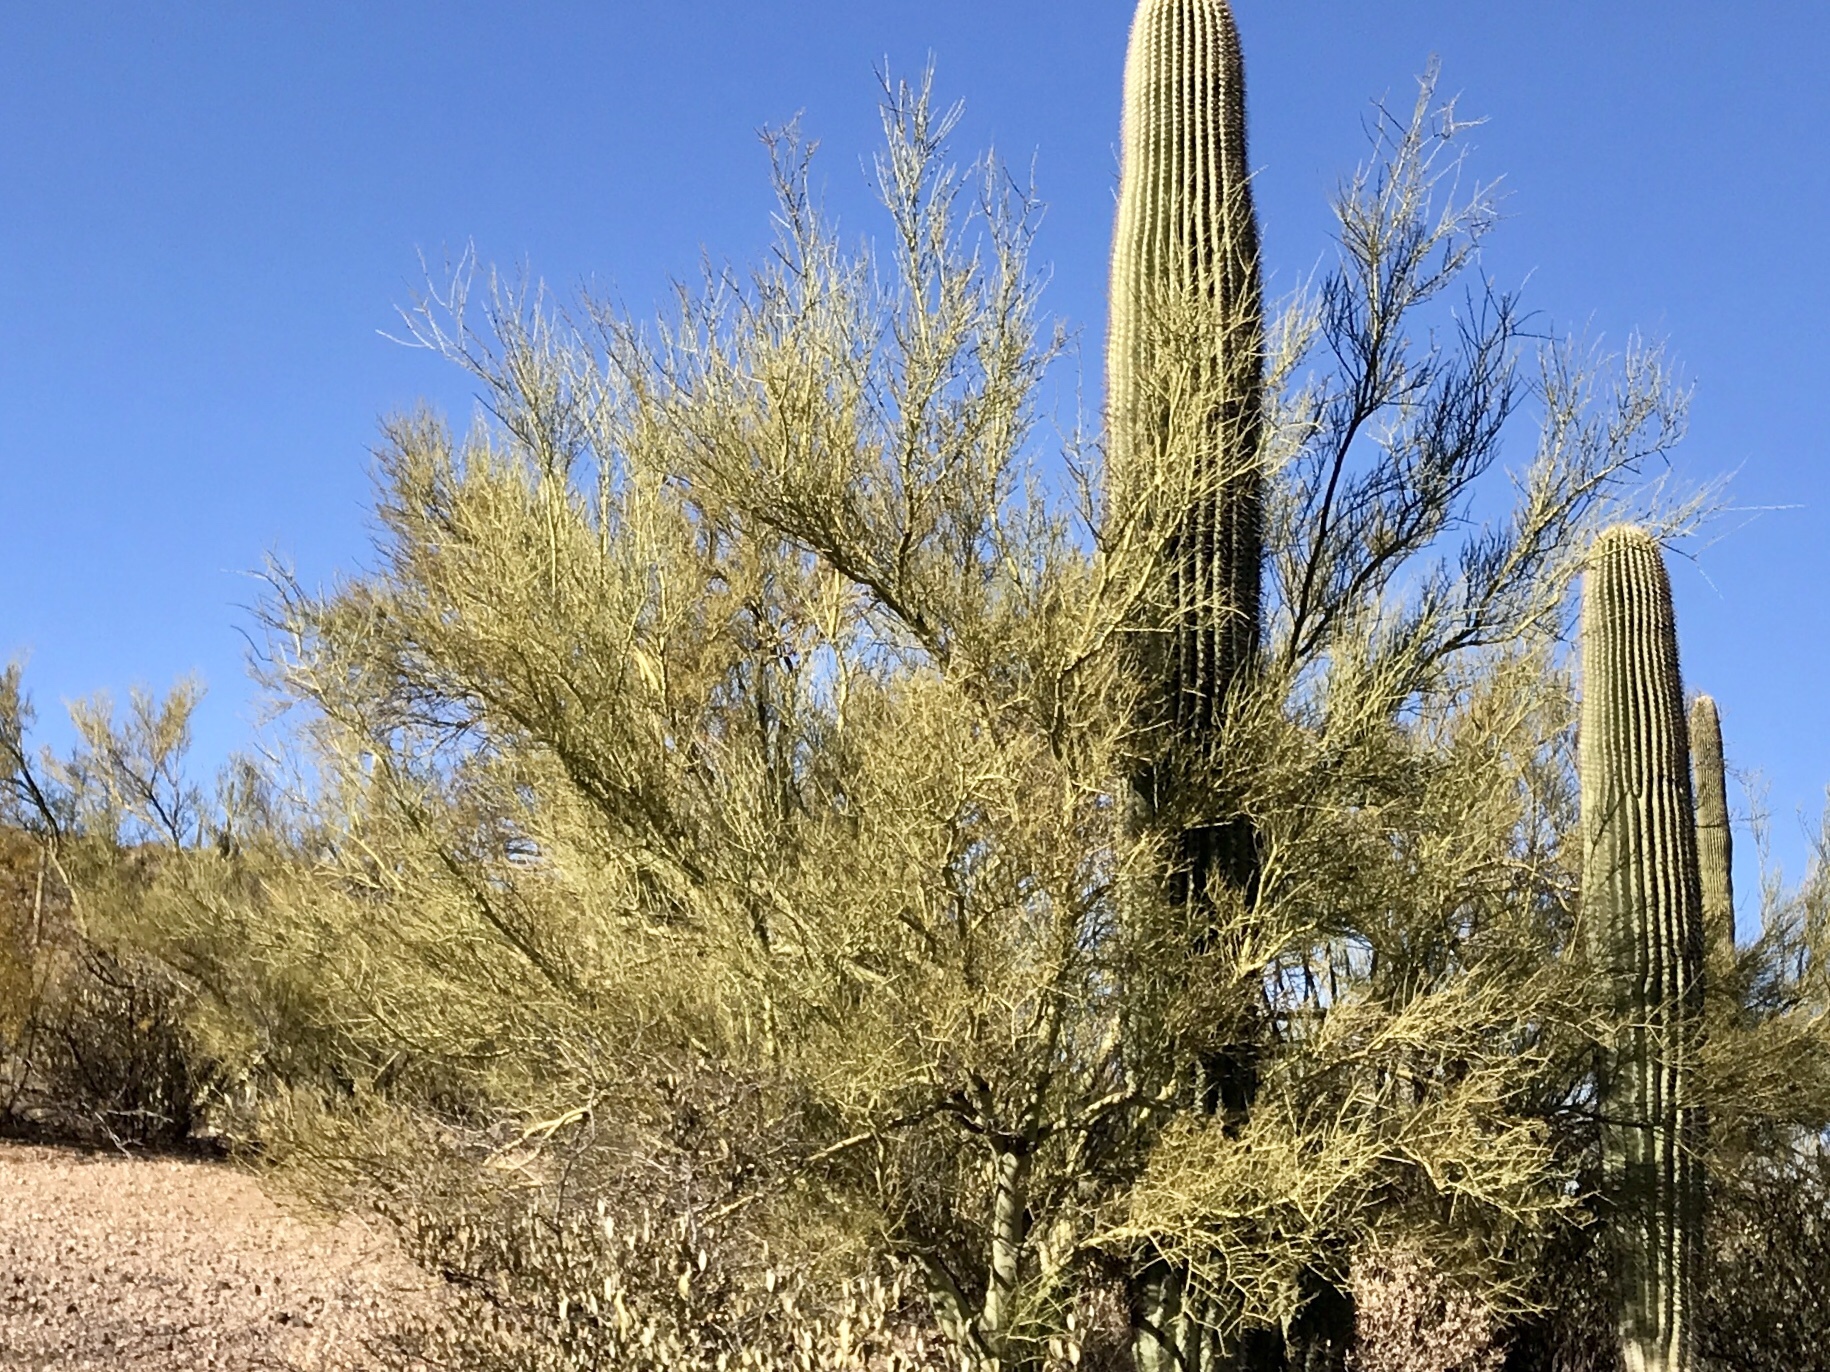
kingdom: Plantae
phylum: Tracheophyta
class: Magnoliopsida
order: Fabales
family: Fabaceae
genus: Parkinsonia
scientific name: Parkinsonia microphylla
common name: Yellow paloverde
